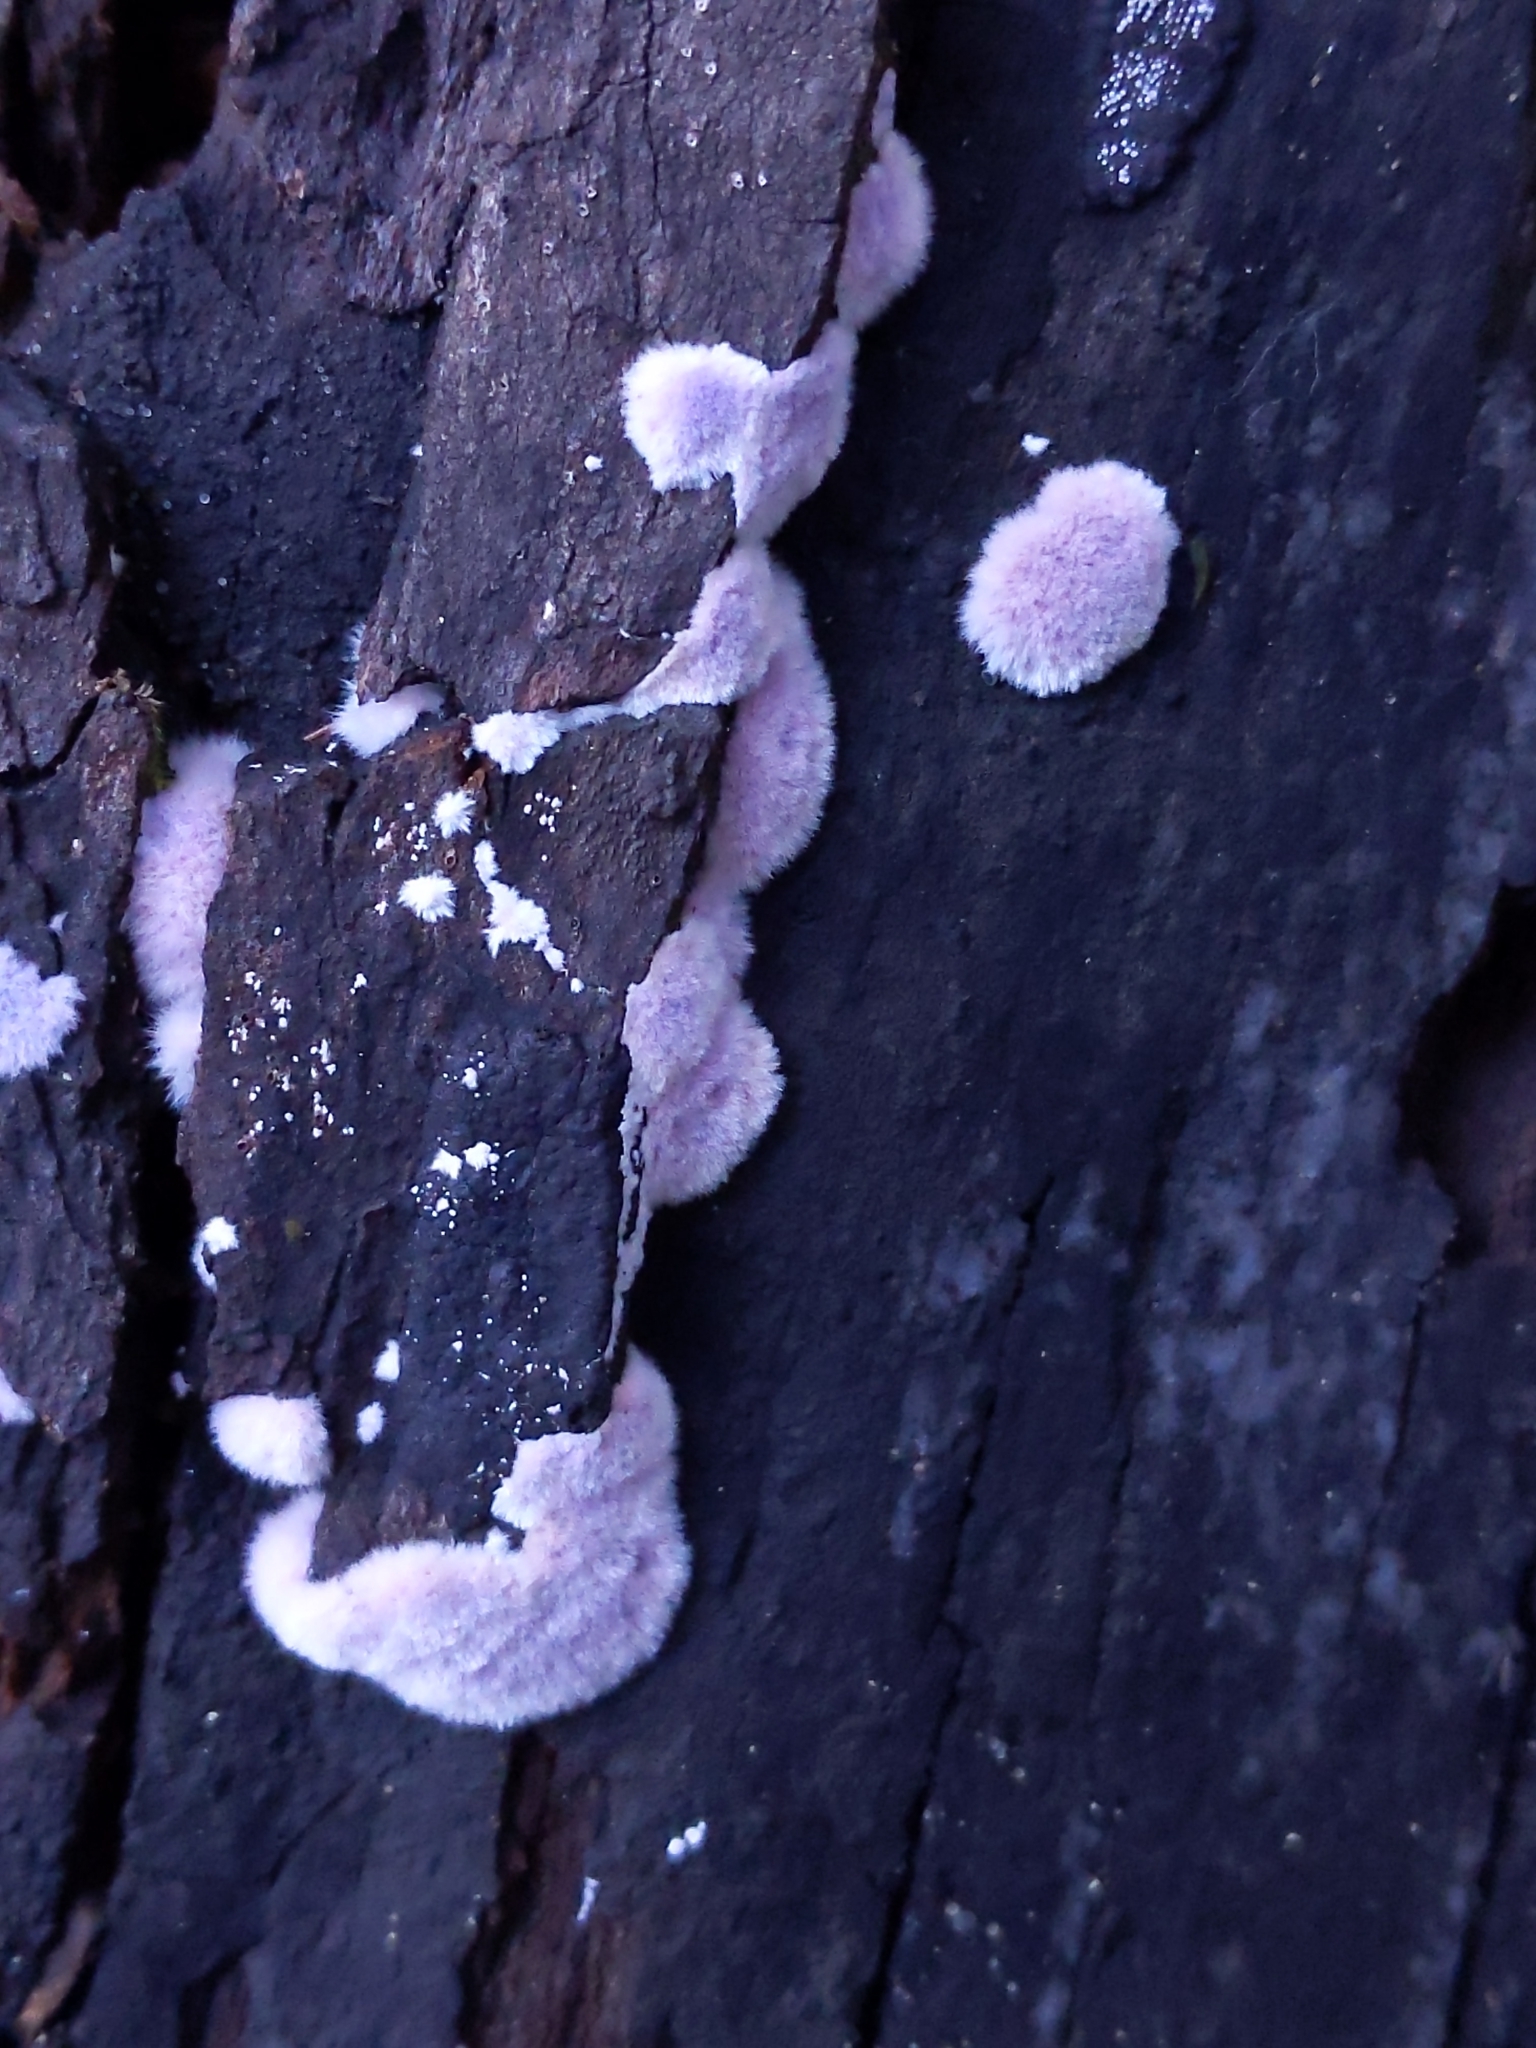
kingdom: Fungi
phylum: Basidiomycota
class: Agaricomycetes
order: Corticiales
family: Punctulariaceae
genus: Punctularia
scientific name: Punctularia atropurpurascens
